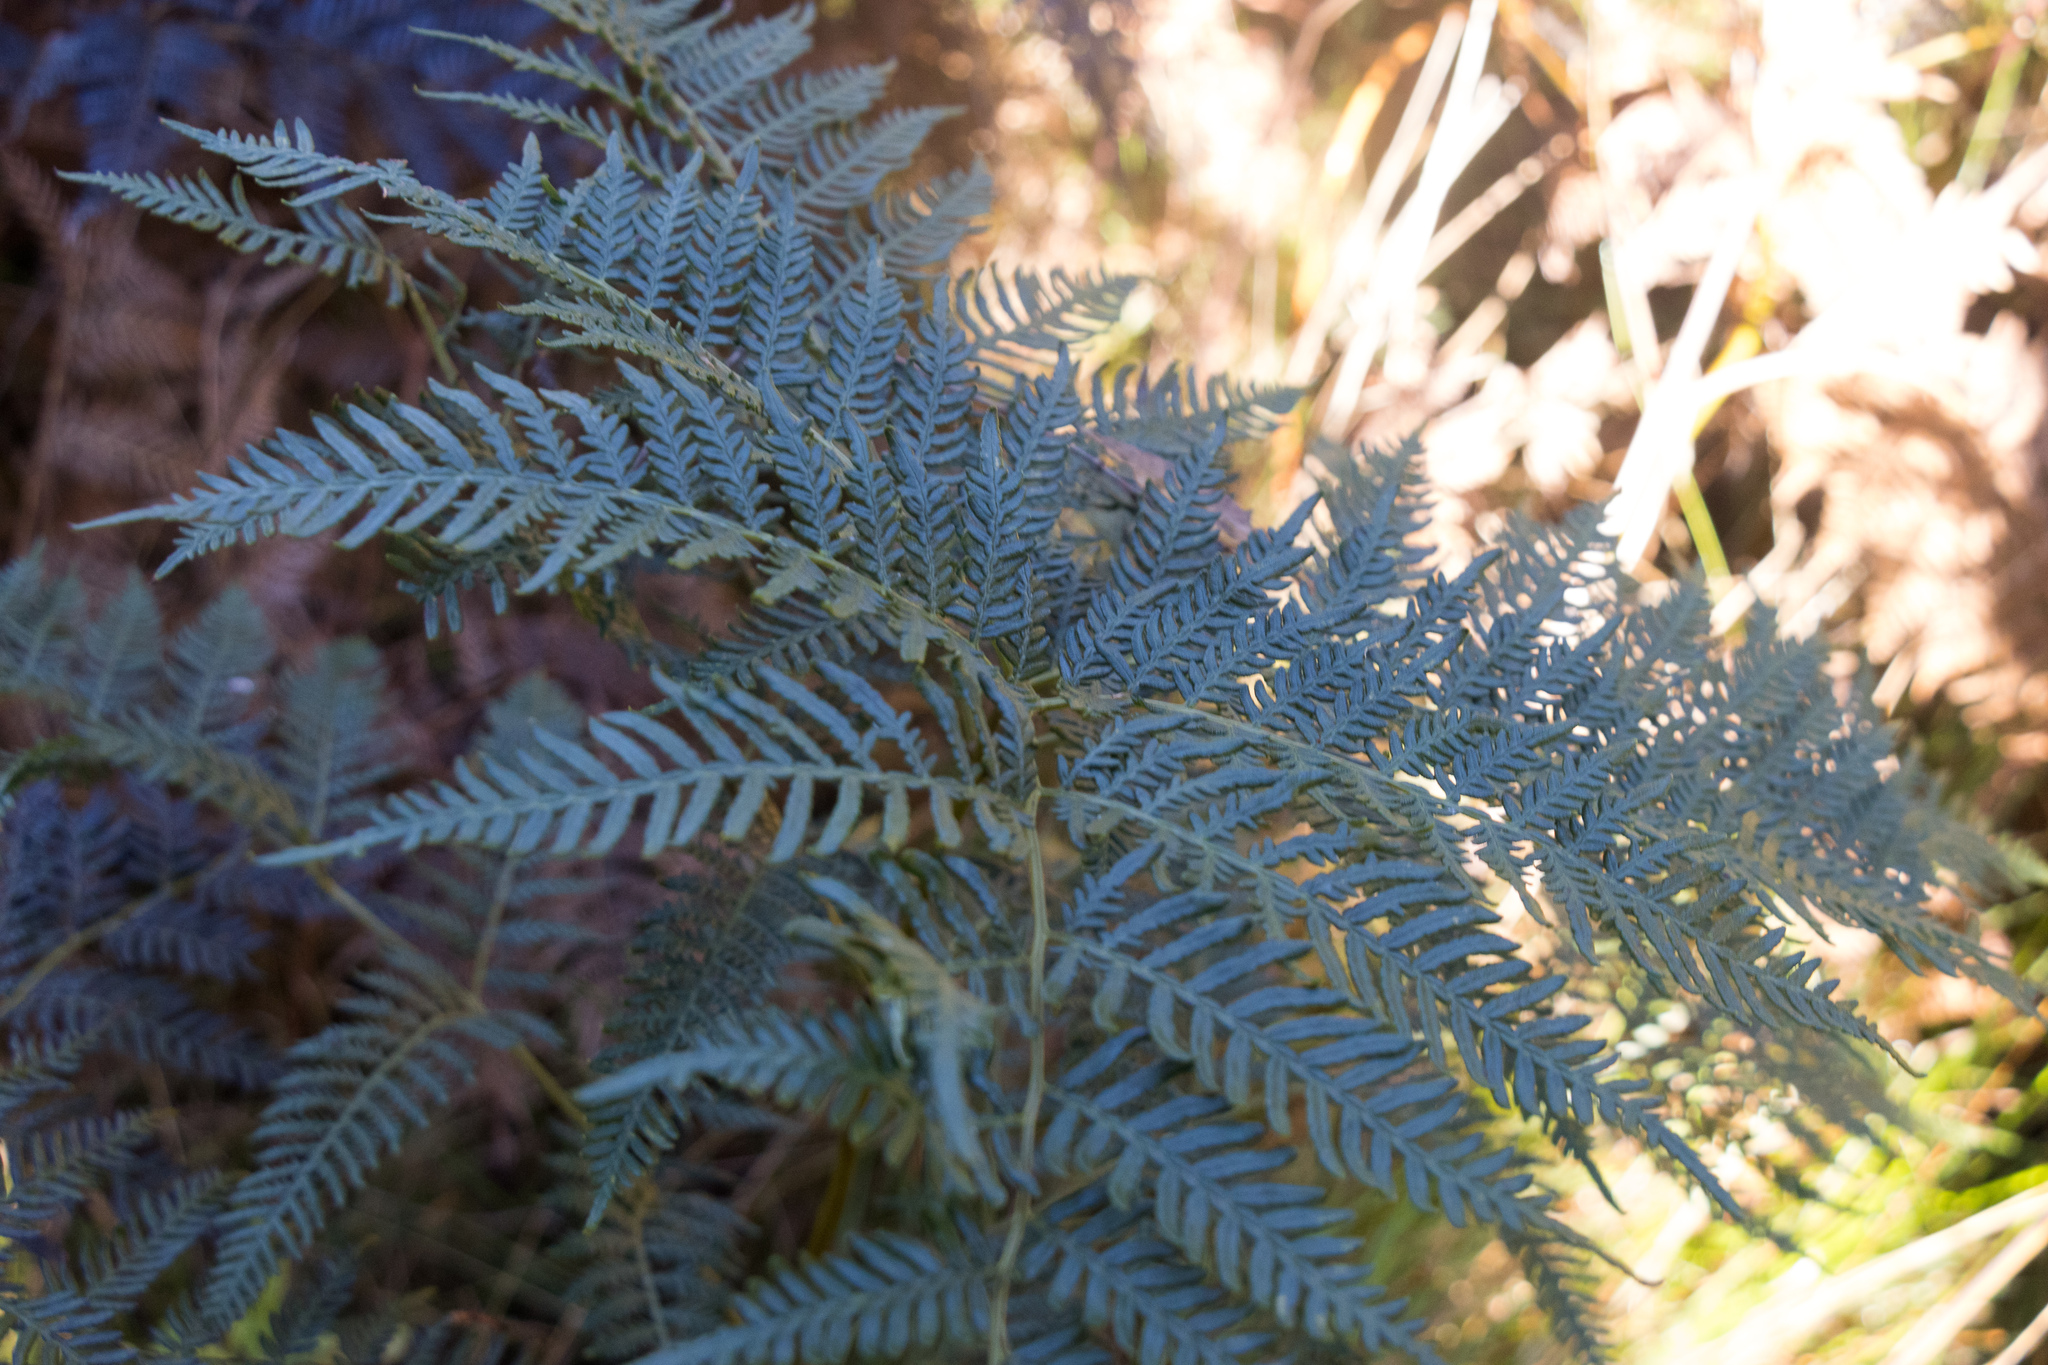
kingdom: Plantae
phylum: Tracheophyta
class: Polypodiopsida
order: Polypodiales
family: Dennstaedtiaceae
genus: Pteridium
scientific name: Pteridium esculentum
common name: Bracken fern
